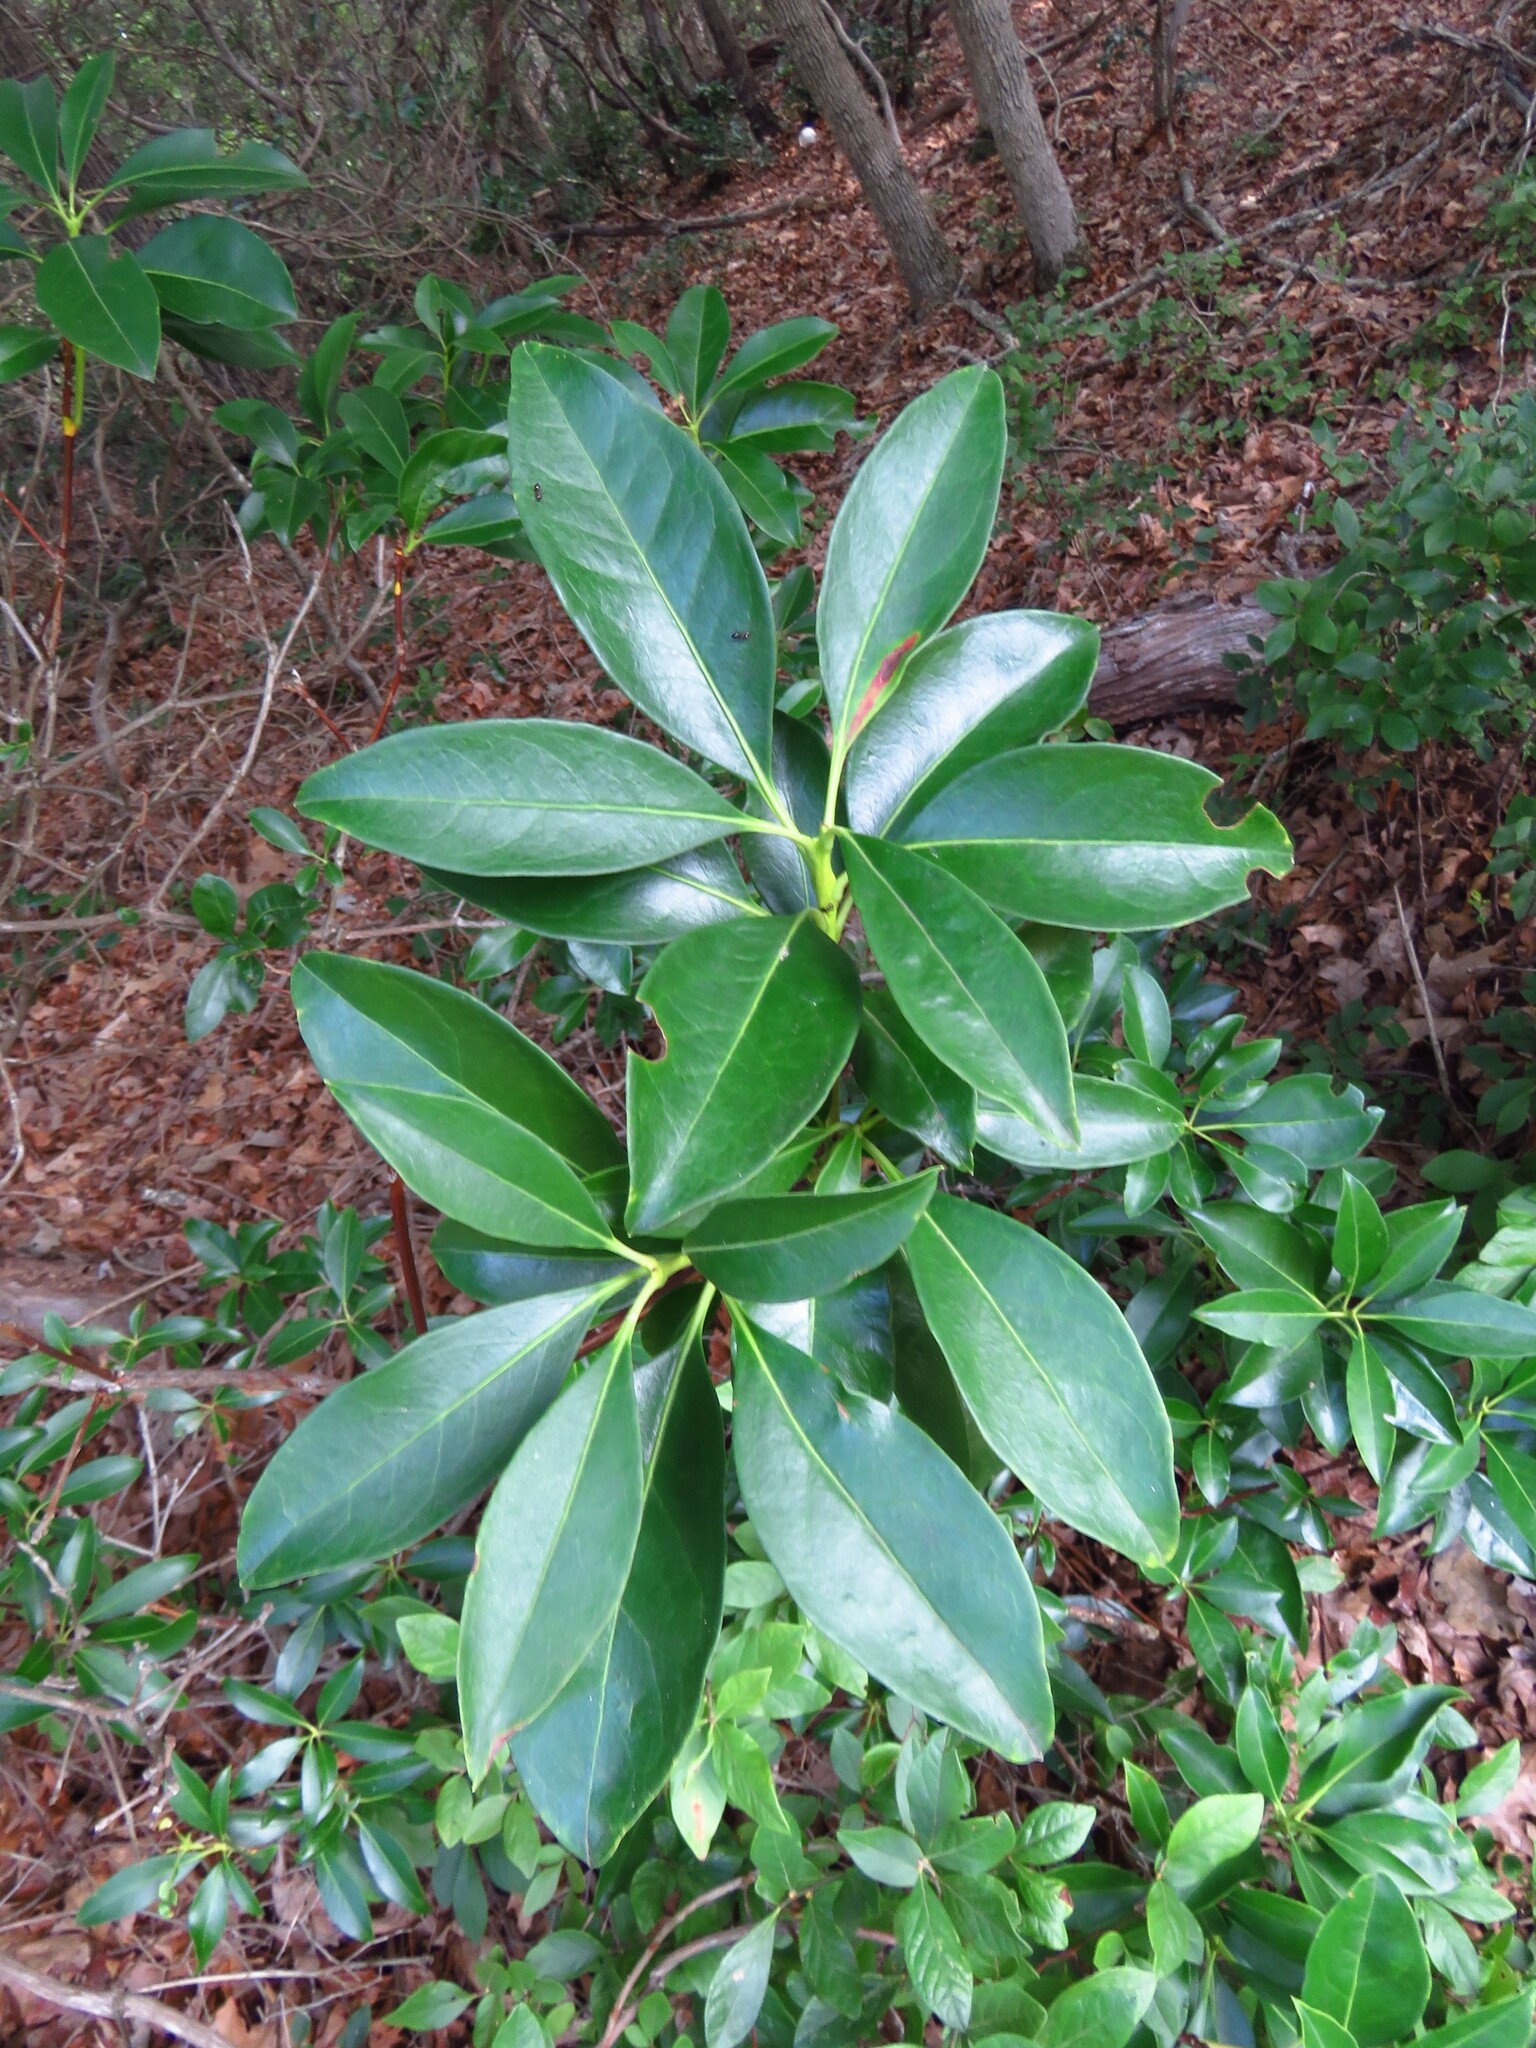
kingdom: Plantae
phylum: Tracheophyta
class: Magnoliopsida
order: Ericales
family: Ericaceae
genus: Kalmia
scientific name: Kalmia latifolia
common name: Mountain-laurel
